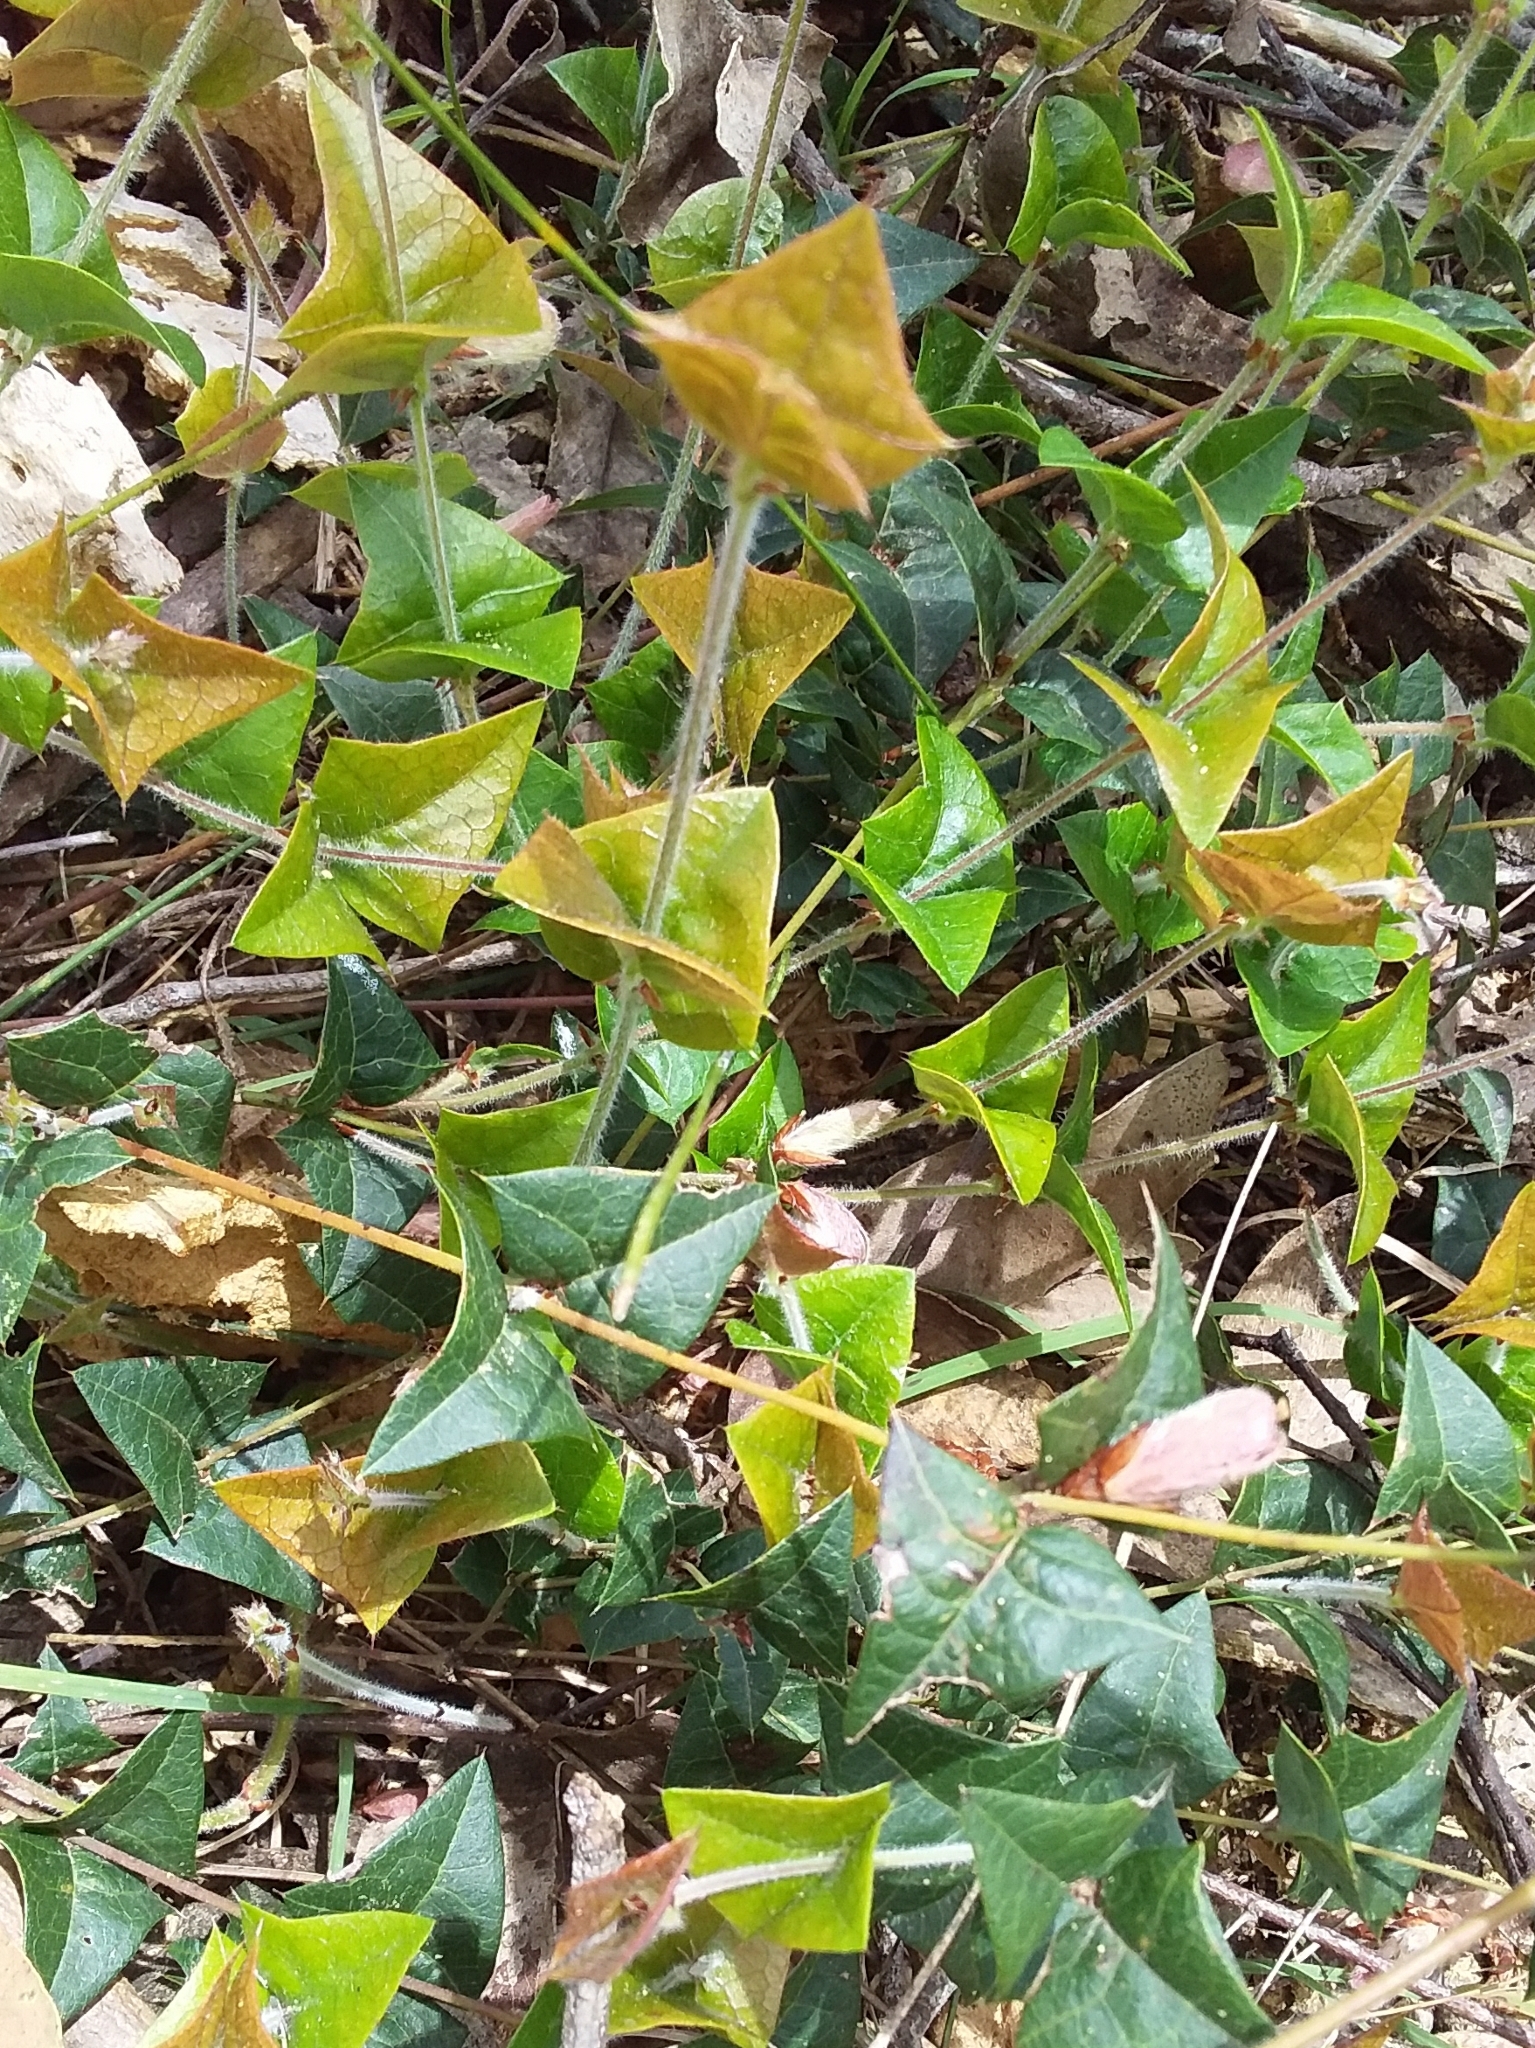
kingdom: Plantae
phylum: Tracheophyta
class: Magnoliopsida
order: Fabales
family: Fabaceae
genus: Platylobium
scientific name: Platylobium obtusangulum
